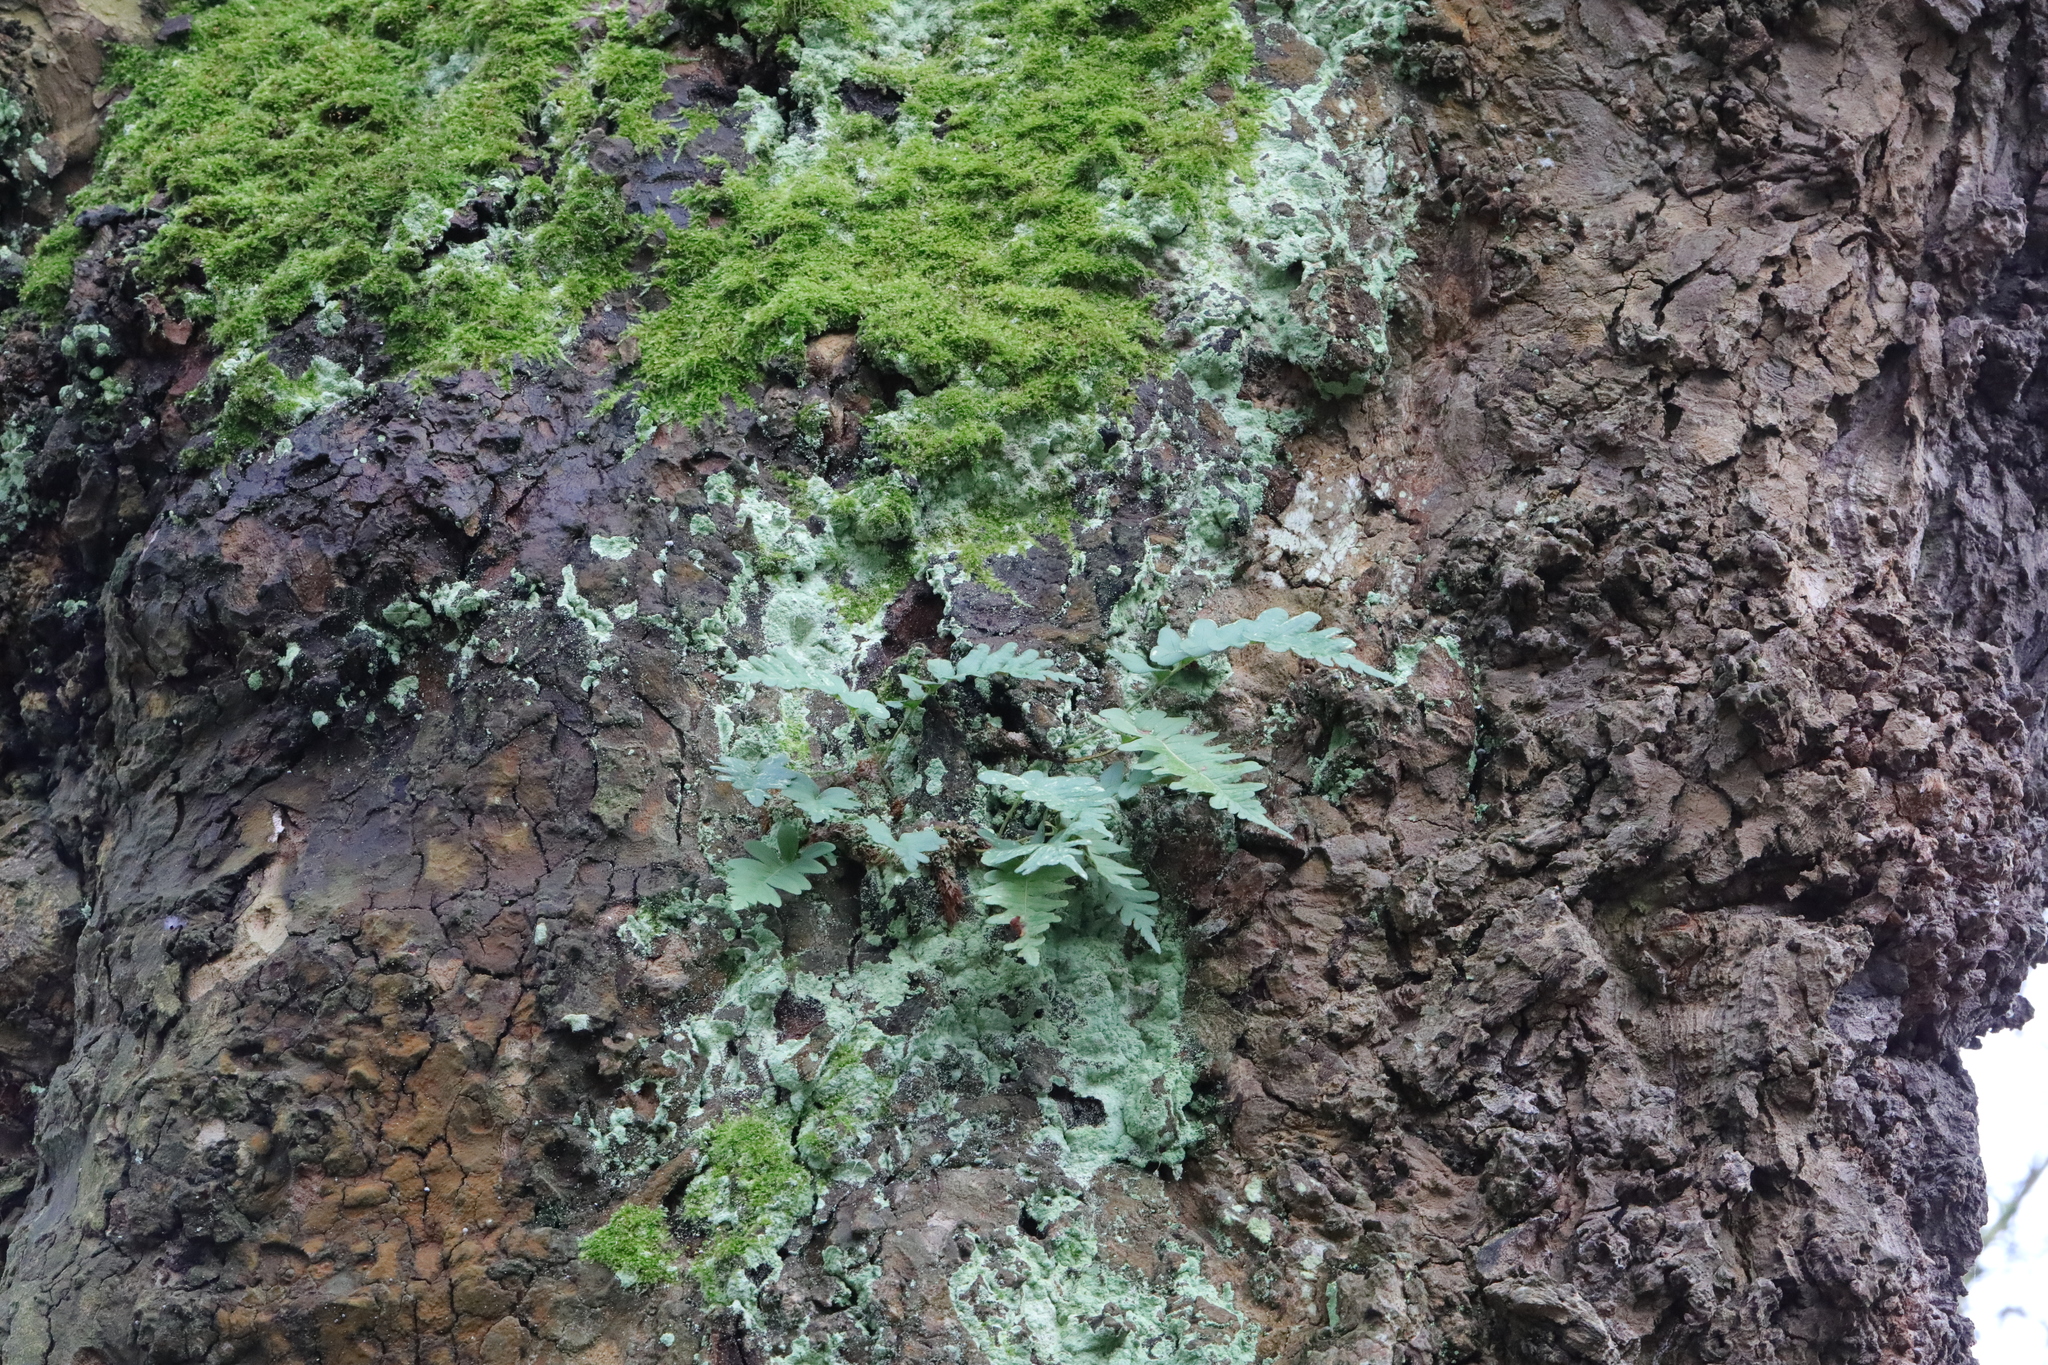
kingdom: Plantae
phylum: Tracheophyta
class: Polypodiopsida
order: Polypodiales
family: Polypodiaceae
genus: Polypodium
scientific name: Polypodium vulgare
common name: Common polypody
